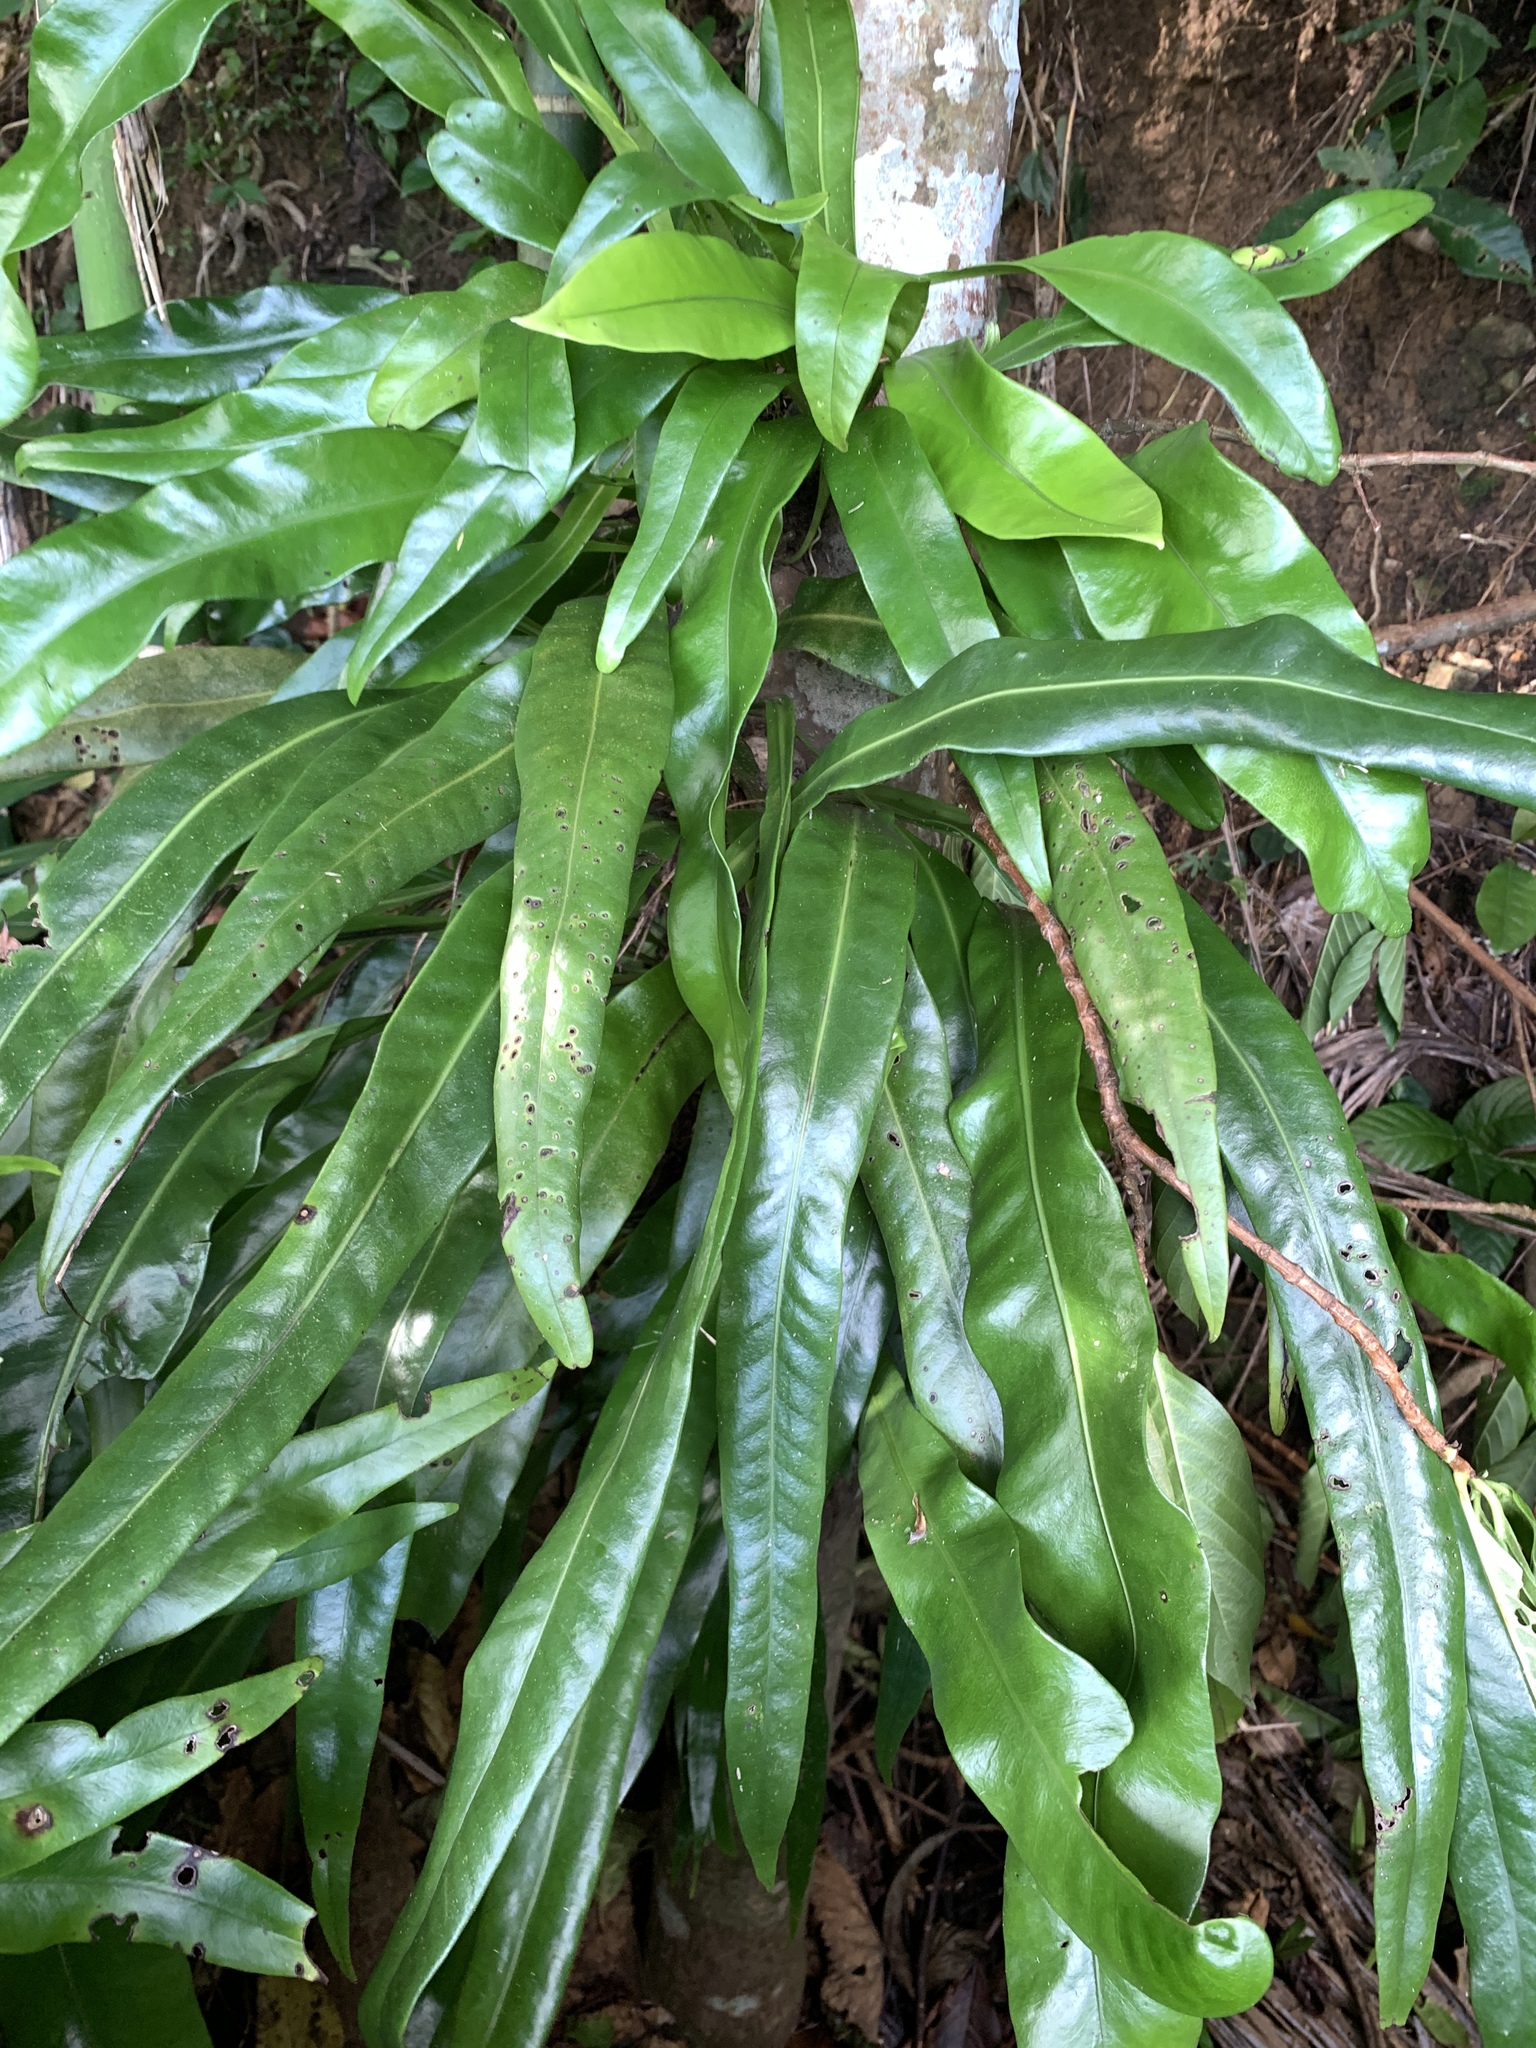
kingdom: Plantae
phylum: Tracheophyta
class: Polypodiopsida
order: Polypodiales
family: Polypodiaceae
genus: Microsorum
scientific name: Microsorum punctatum
